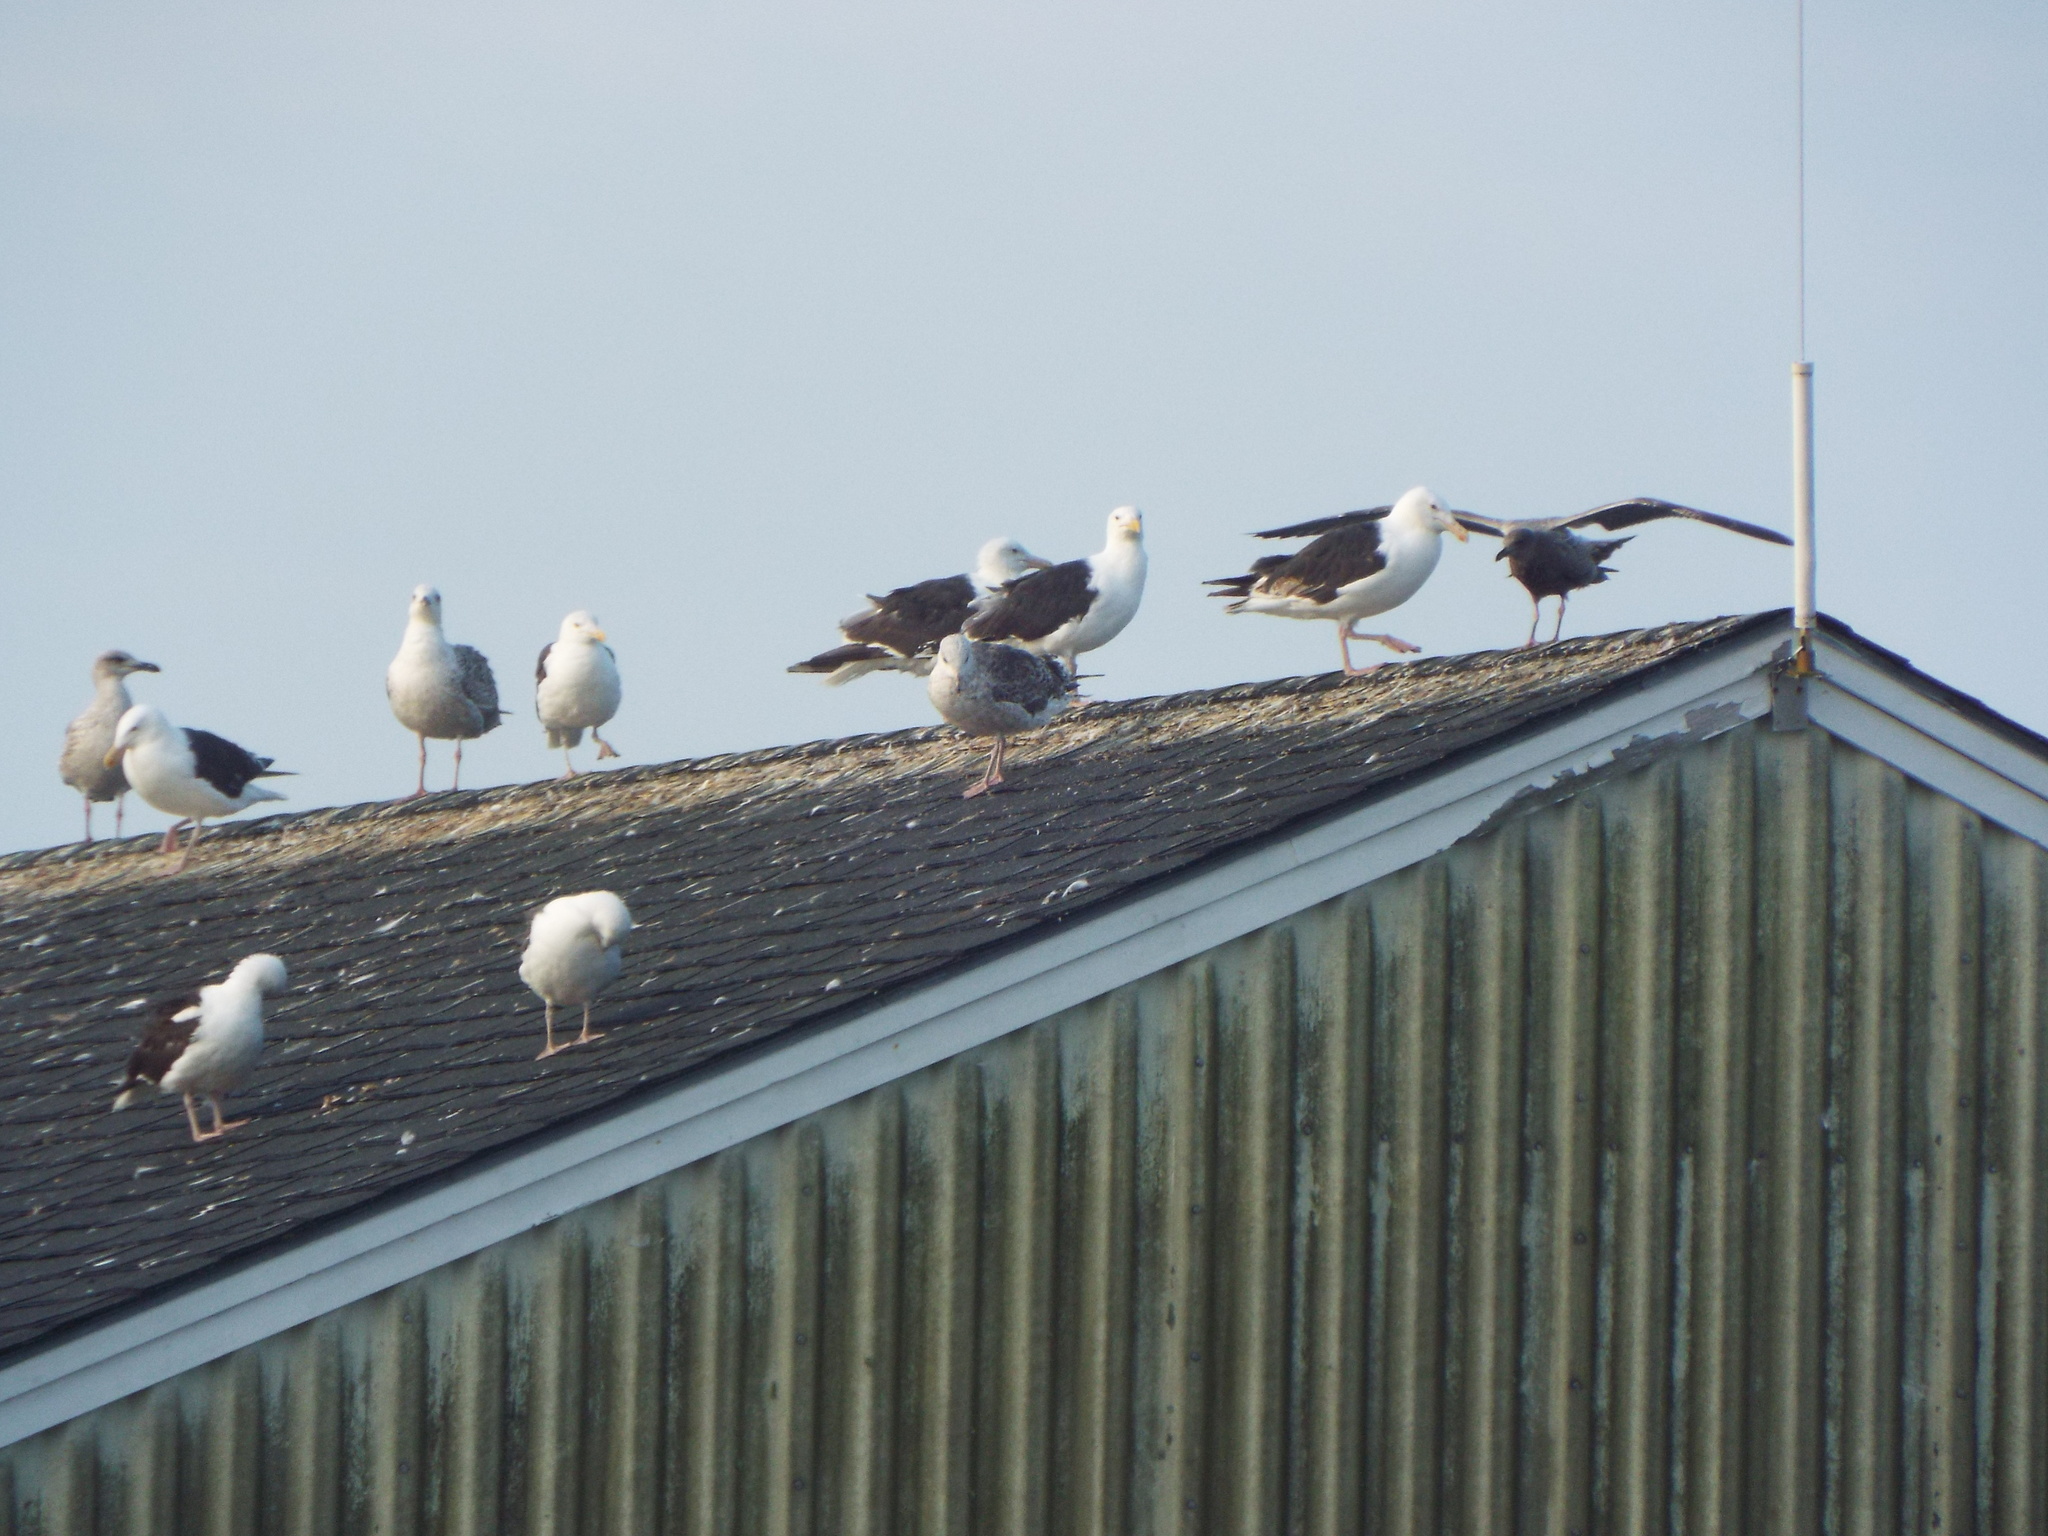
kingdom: Animalia
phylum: Chordata
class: Aves
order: Charadriiformes
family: Laridae
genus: Larus
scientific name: Larus marinus
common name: Great black-backed gull
